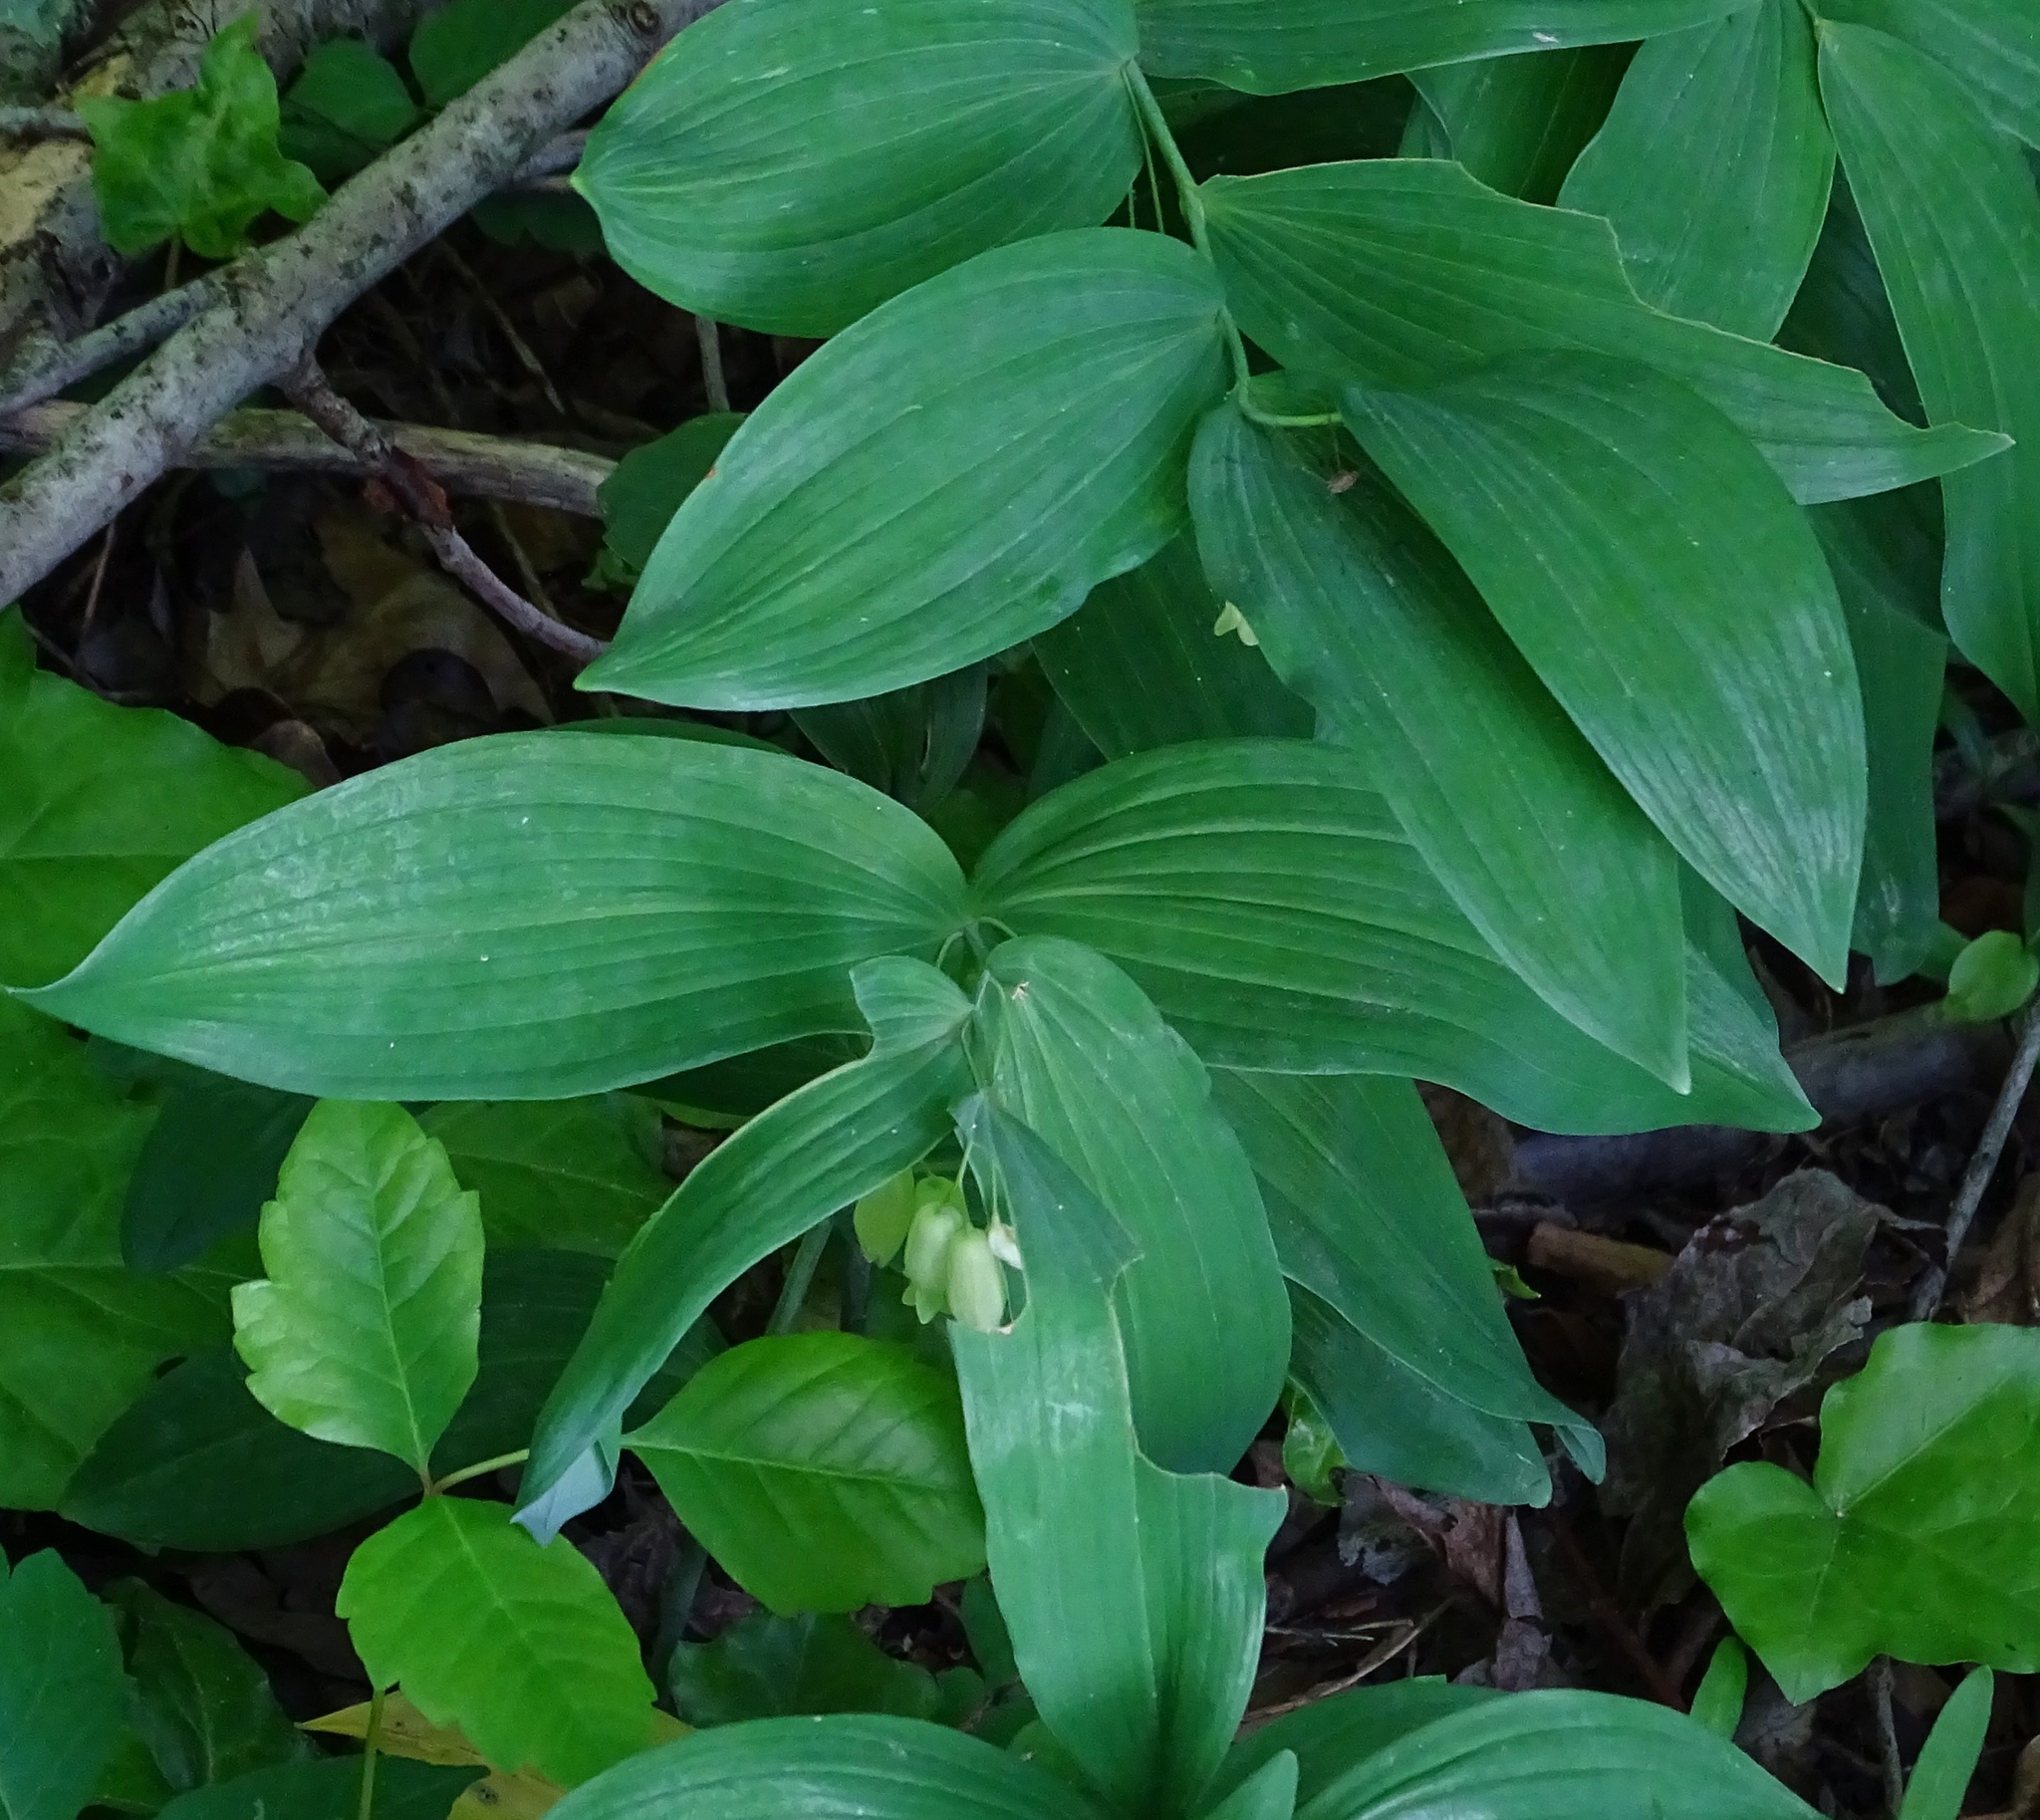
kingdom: Plantae
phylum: Tracheophyta
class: Liliopsida
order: Asparagales
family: Asparagaceae
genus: Polygonatum
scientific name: Polygonatum biflorum
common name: American solomon's-seal
